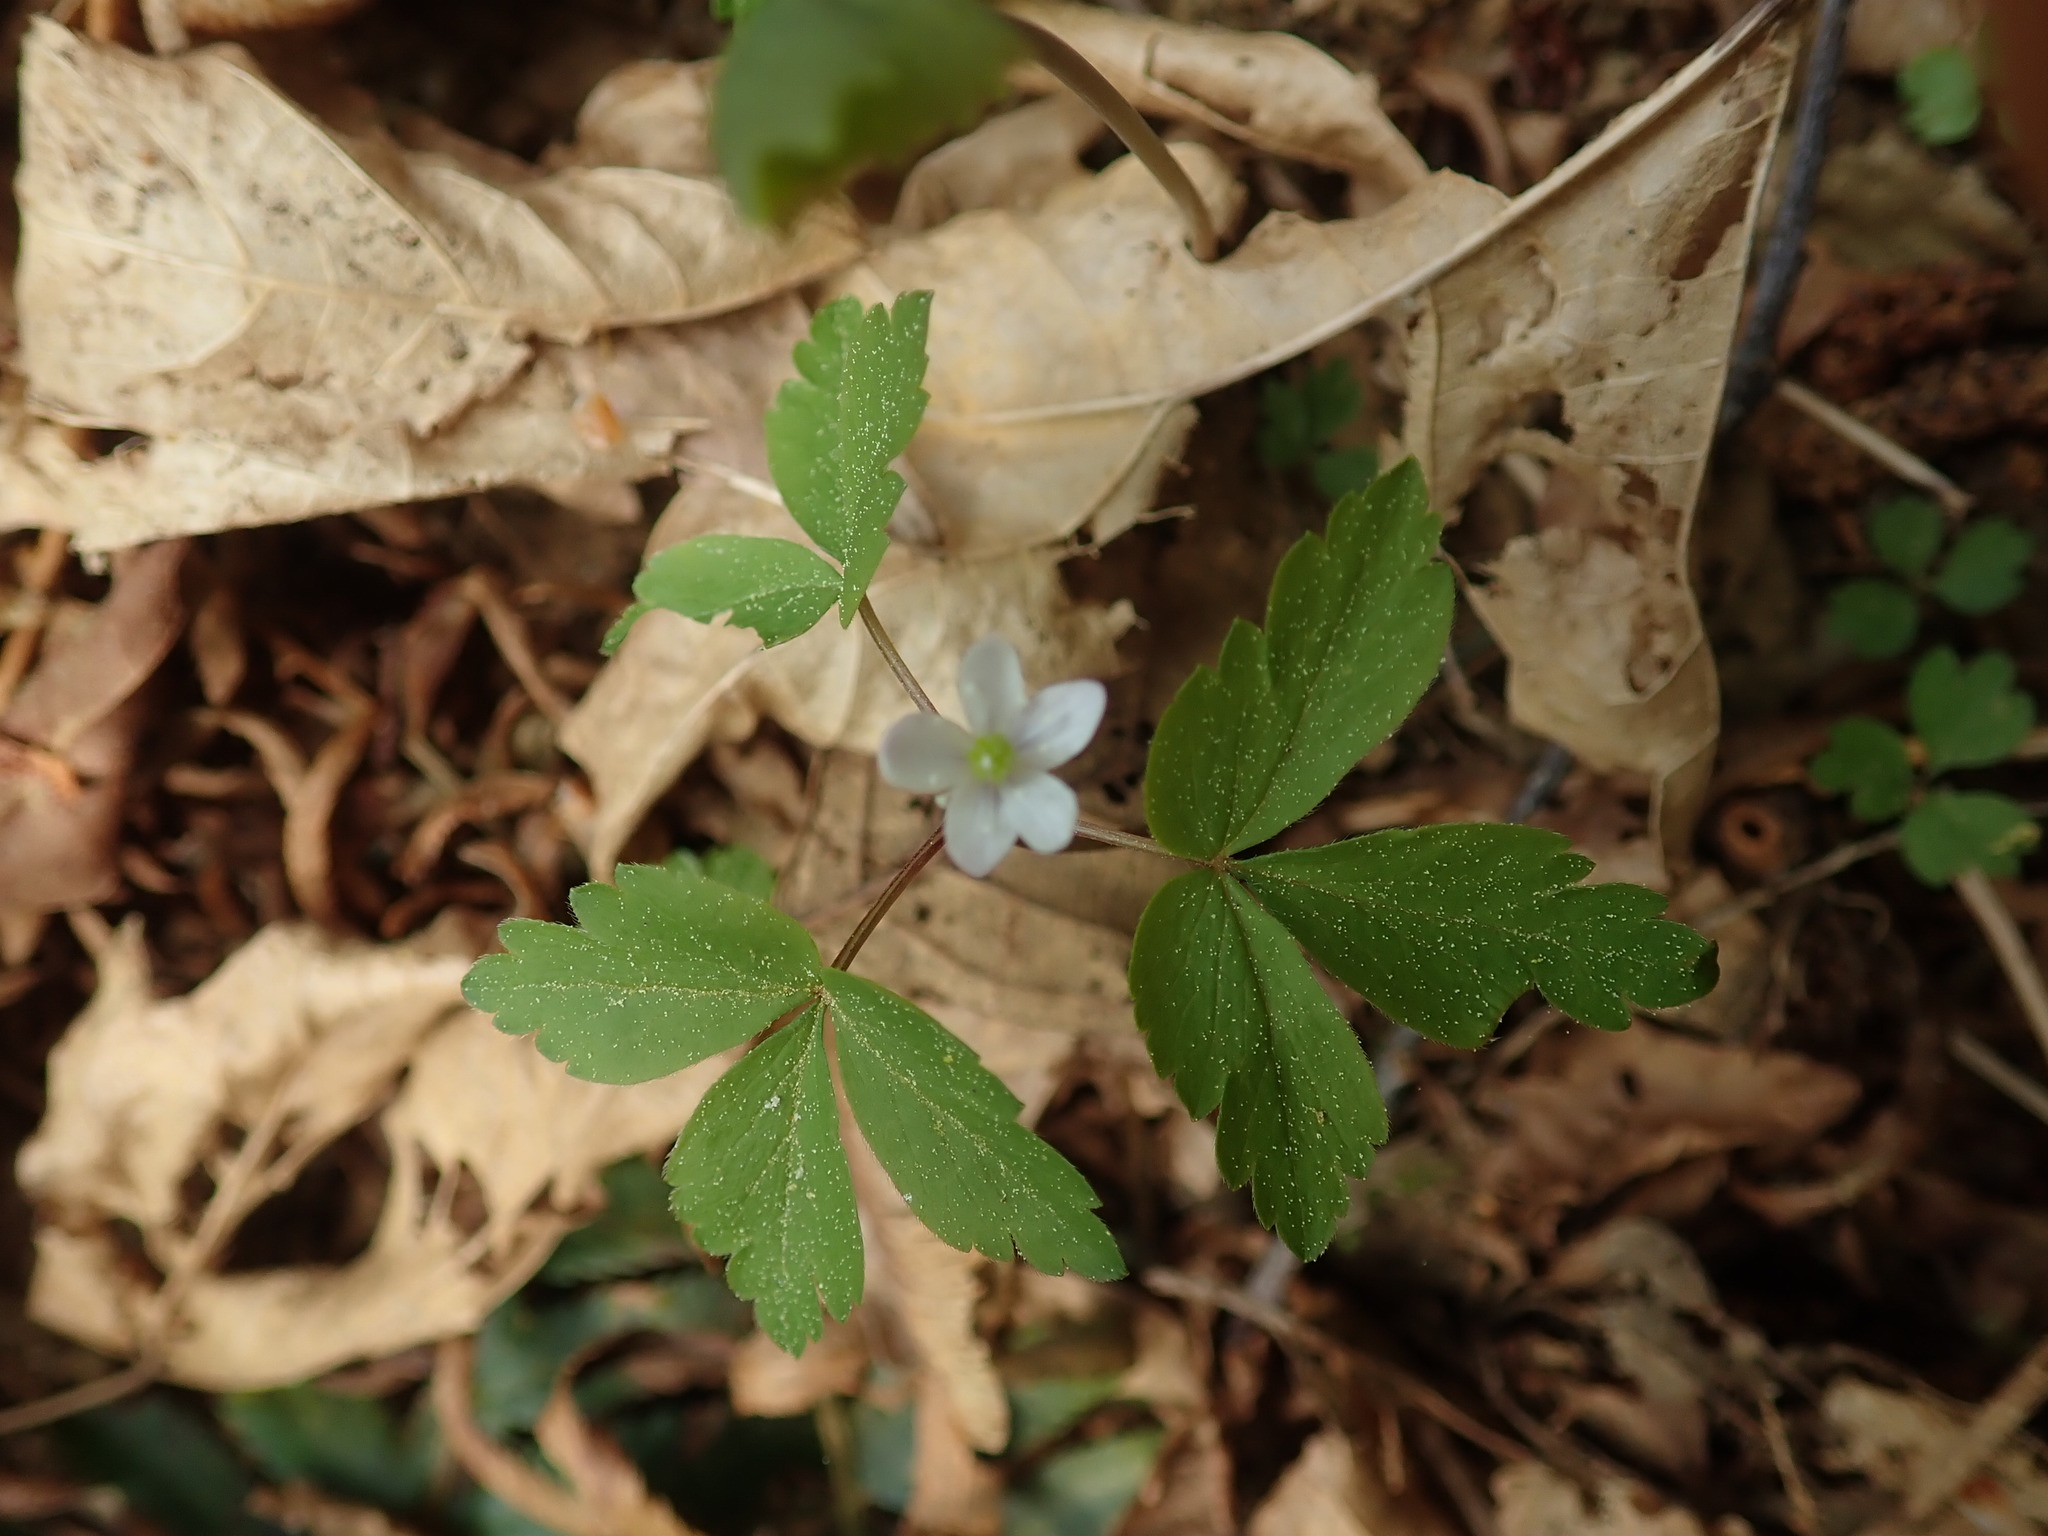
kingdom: Plantae
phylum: Tracheophyta
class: Magnoliopsida
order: Ranunculales
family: Ranunculaceae
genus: Anemone
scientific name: Anemone
